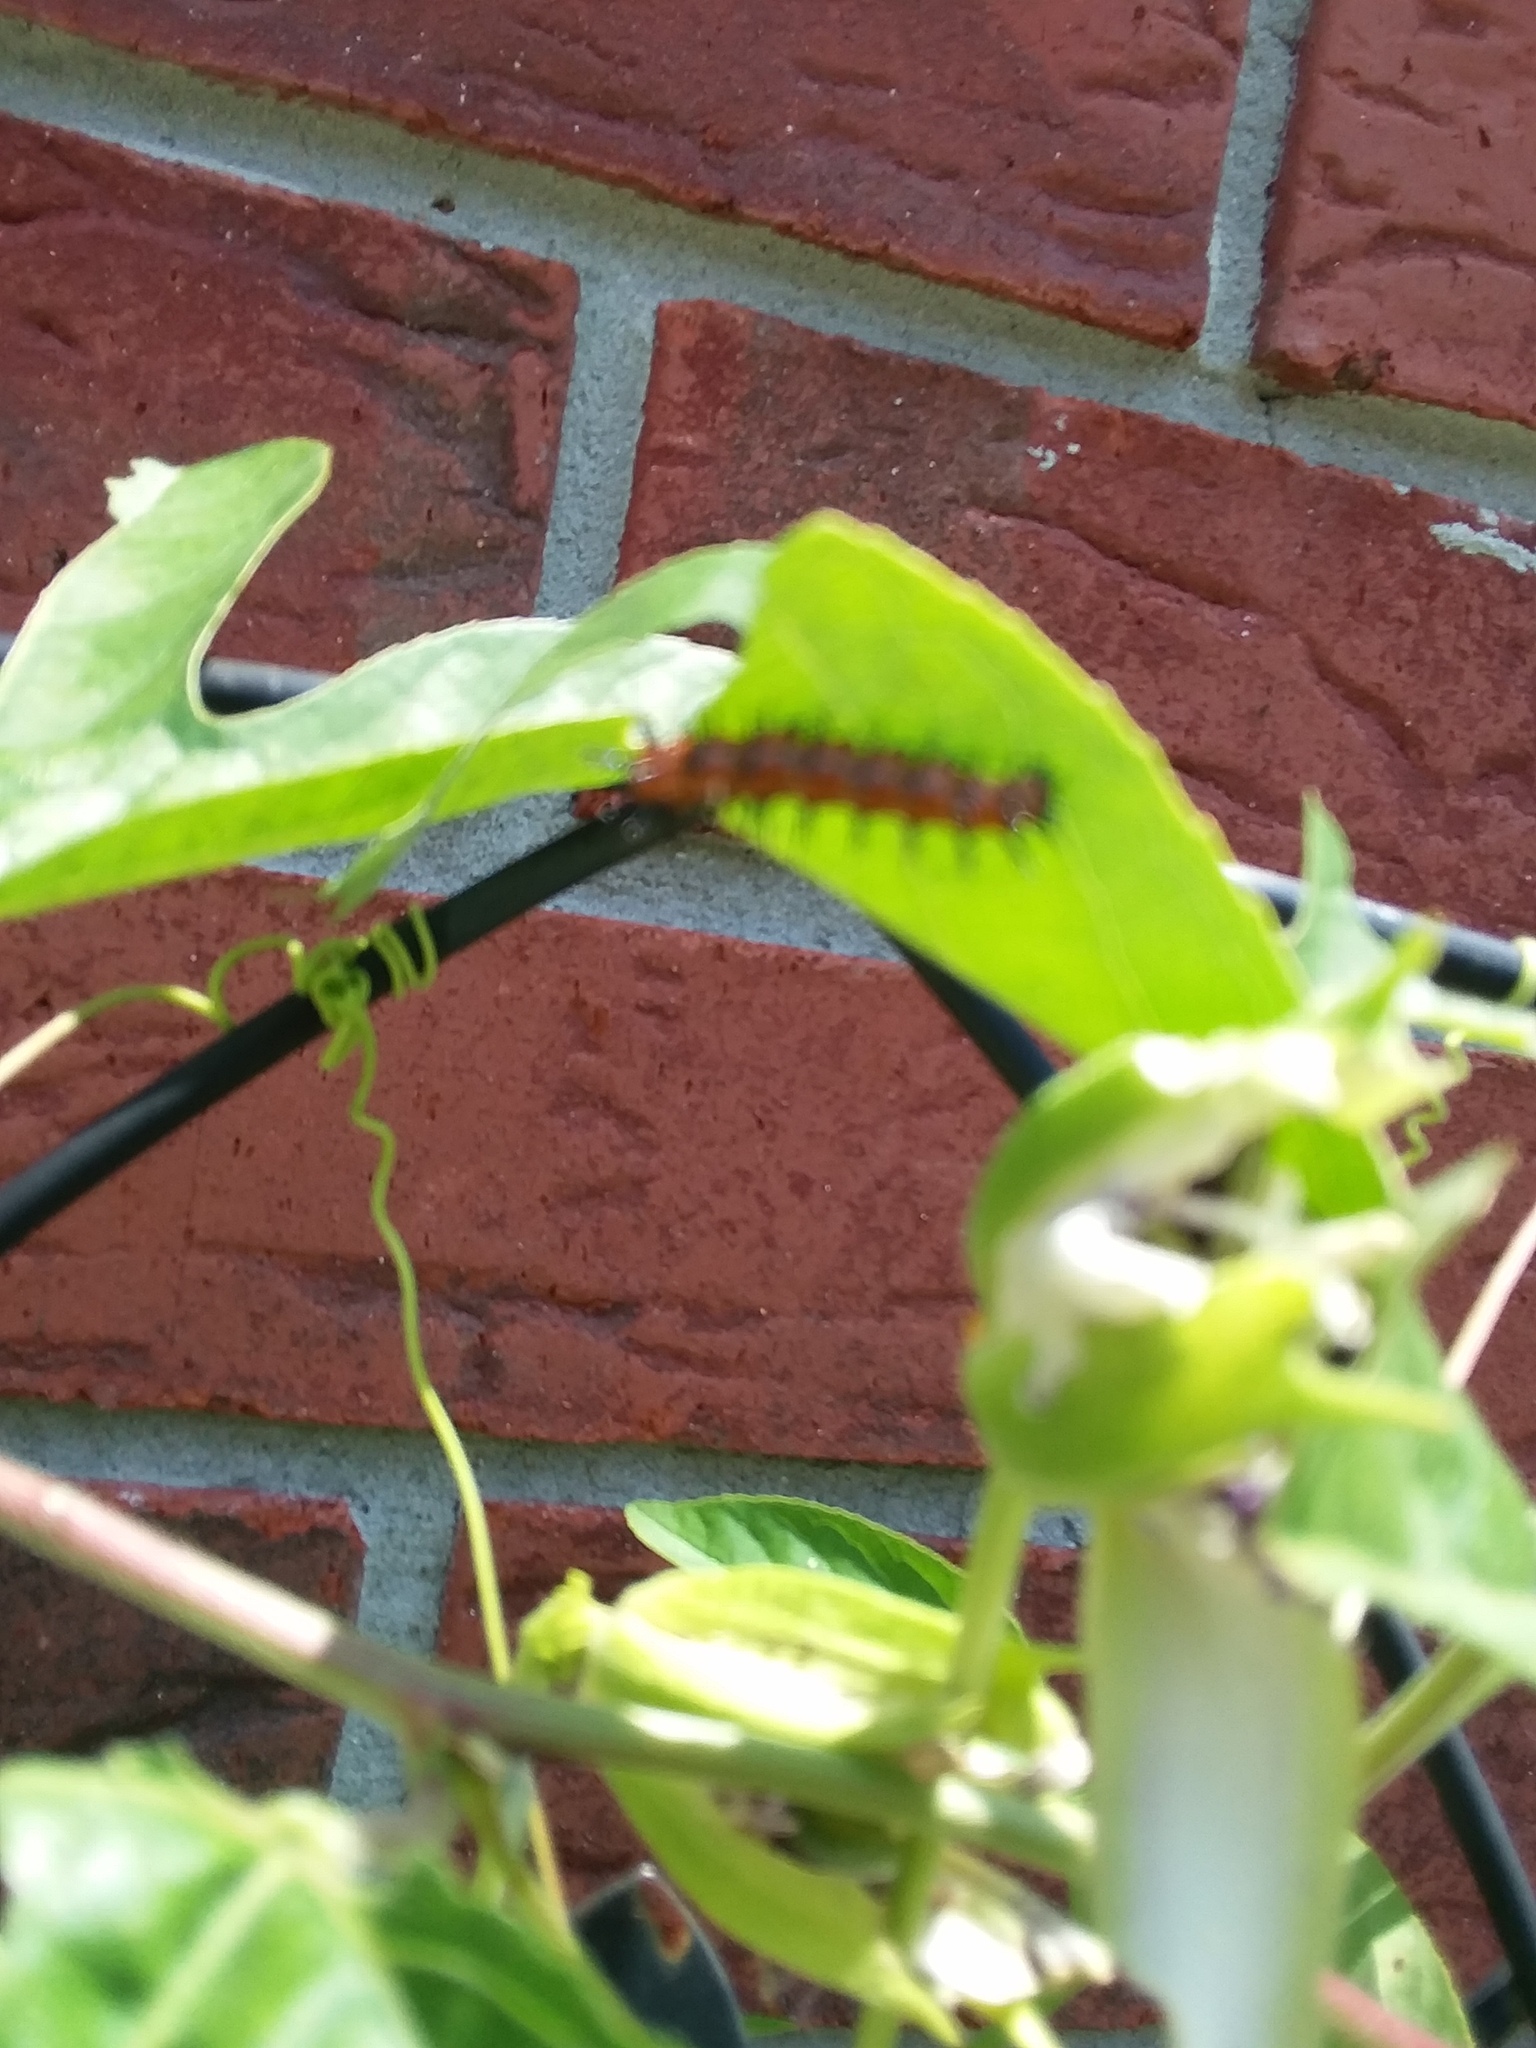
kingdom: Animalia
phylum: Arthropoda
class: Insecta
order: Lepidoptera
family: Nymphalidae
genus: Dione
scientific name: Dione vanillae
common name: Gulf fritillary
